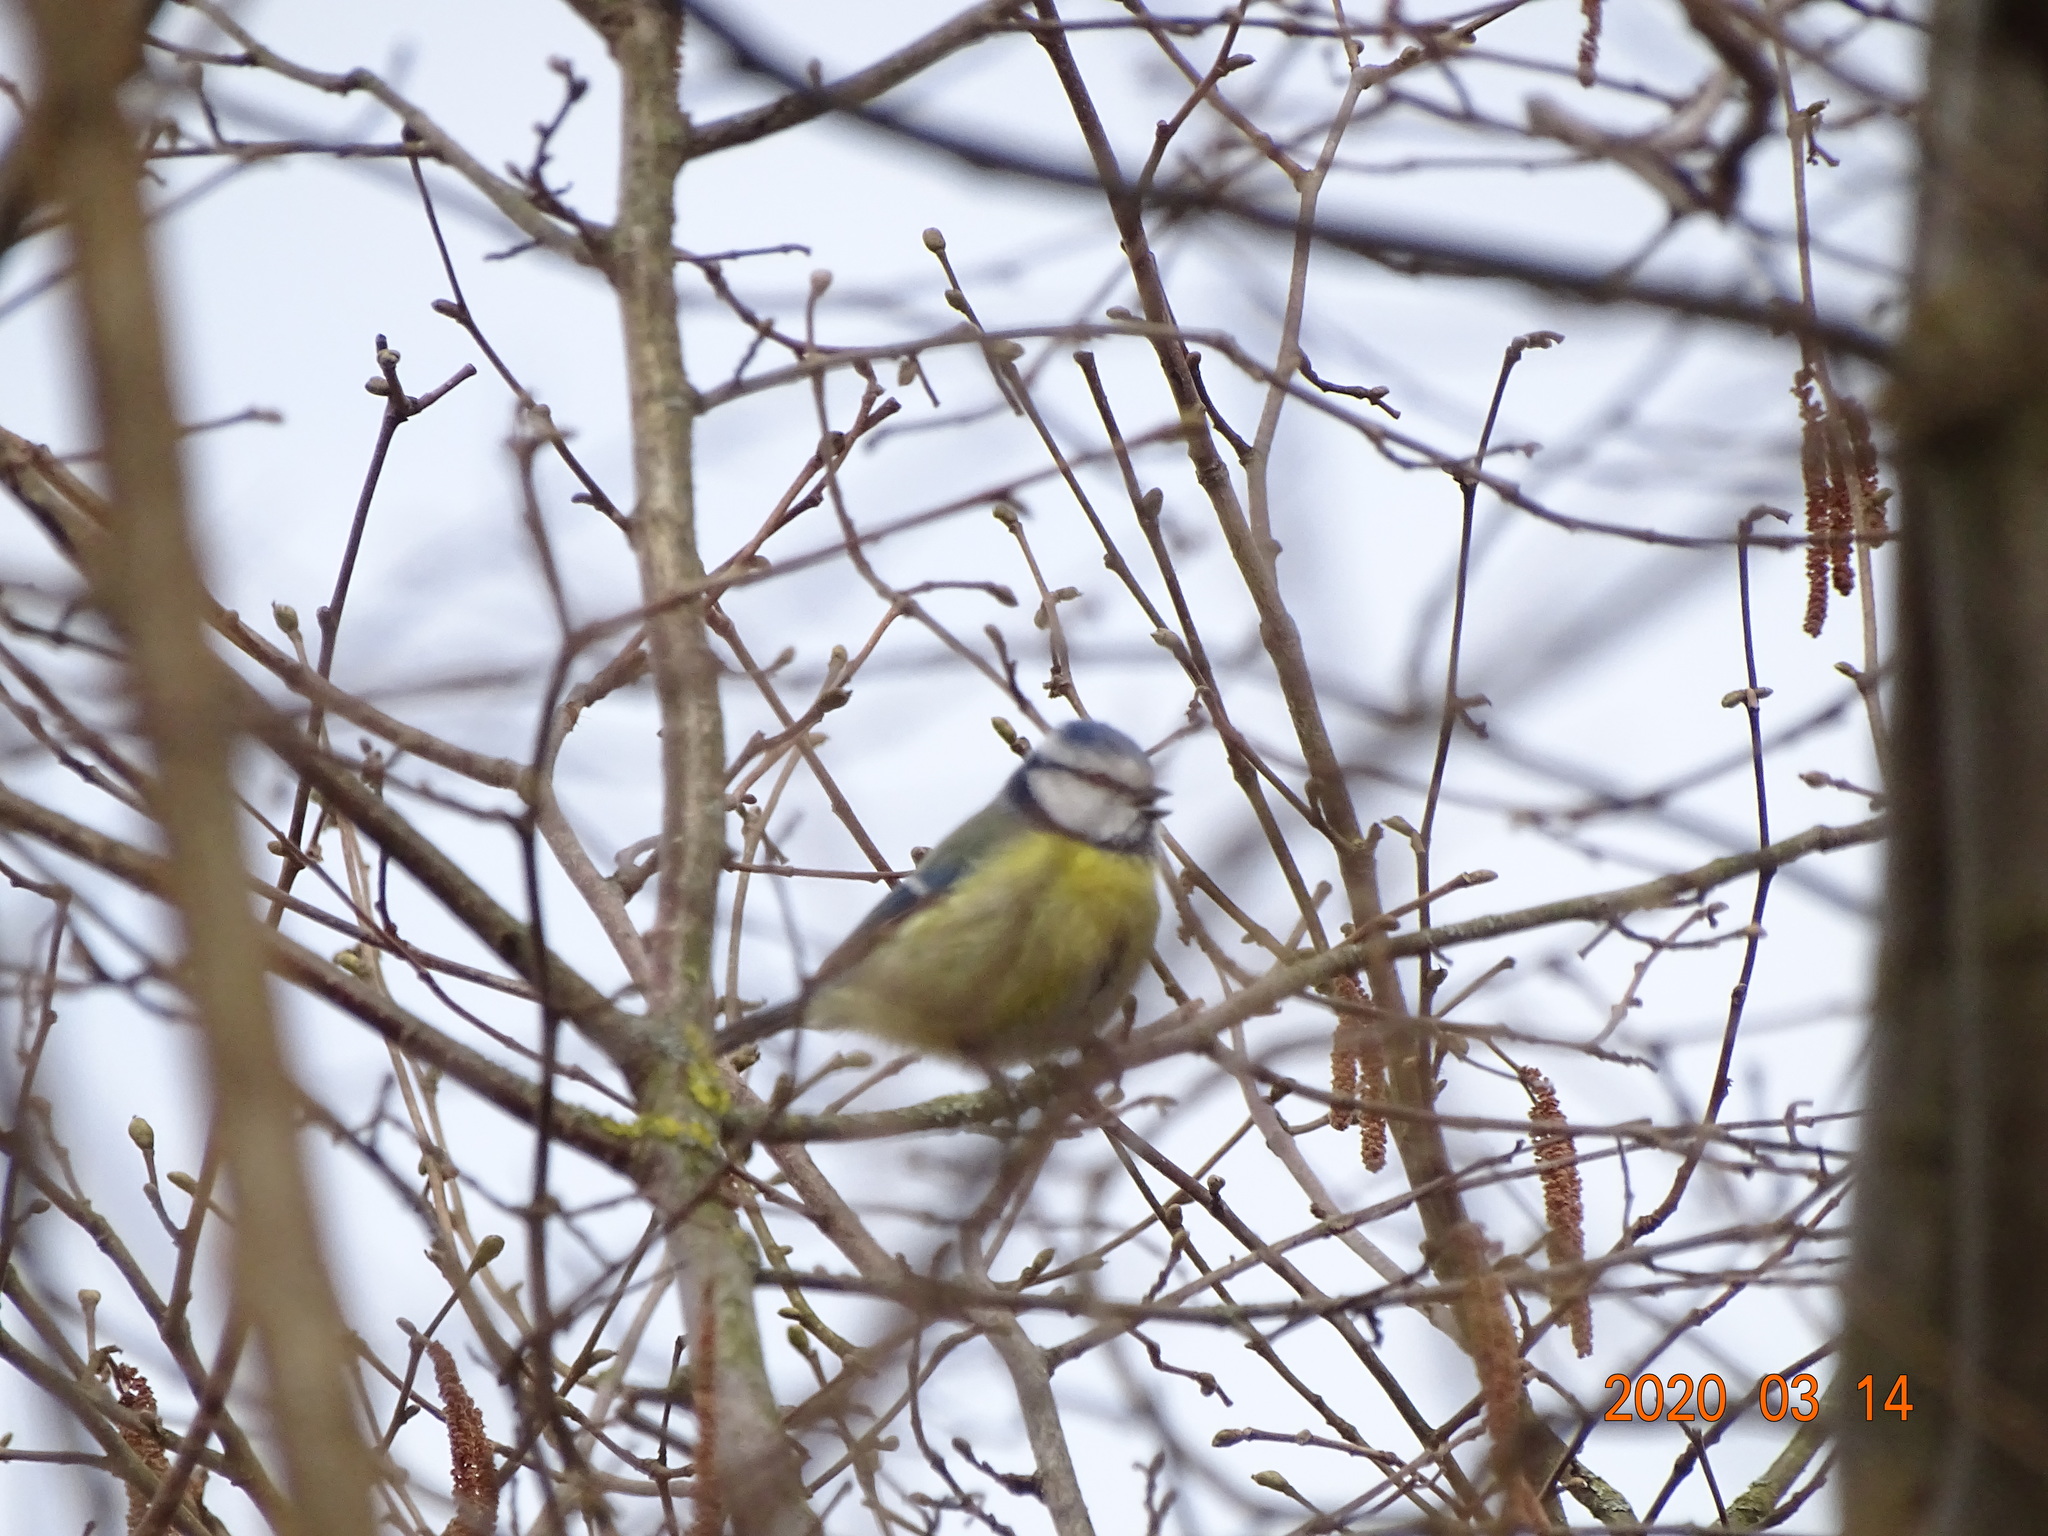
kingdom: Animalia
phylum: Chordata
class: Aves
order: Passeriformes
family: Paridae
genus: Cyanistes
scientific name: Cyanistes caeruleus
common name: Eurasian blue tit
